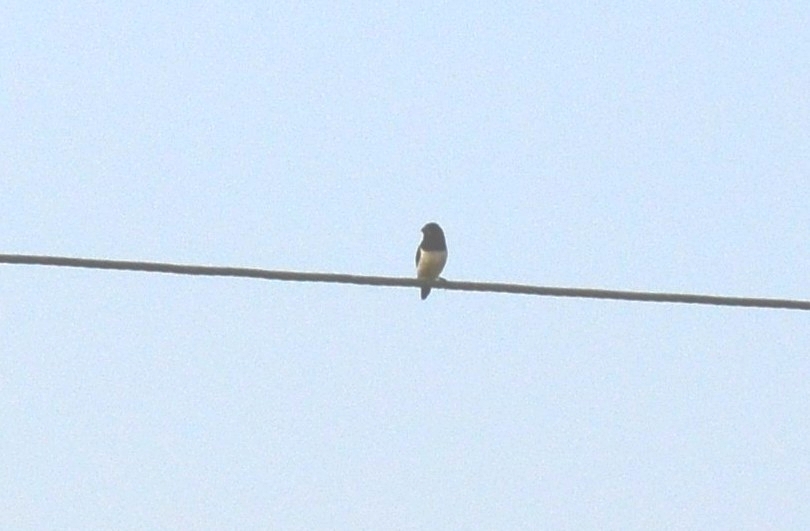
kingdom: Animalia
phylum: Chordata
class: Aves
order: Passeriformes
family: Estrildidae
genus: Lonchura
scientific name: Lonchura striata
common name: White-rumped munia
